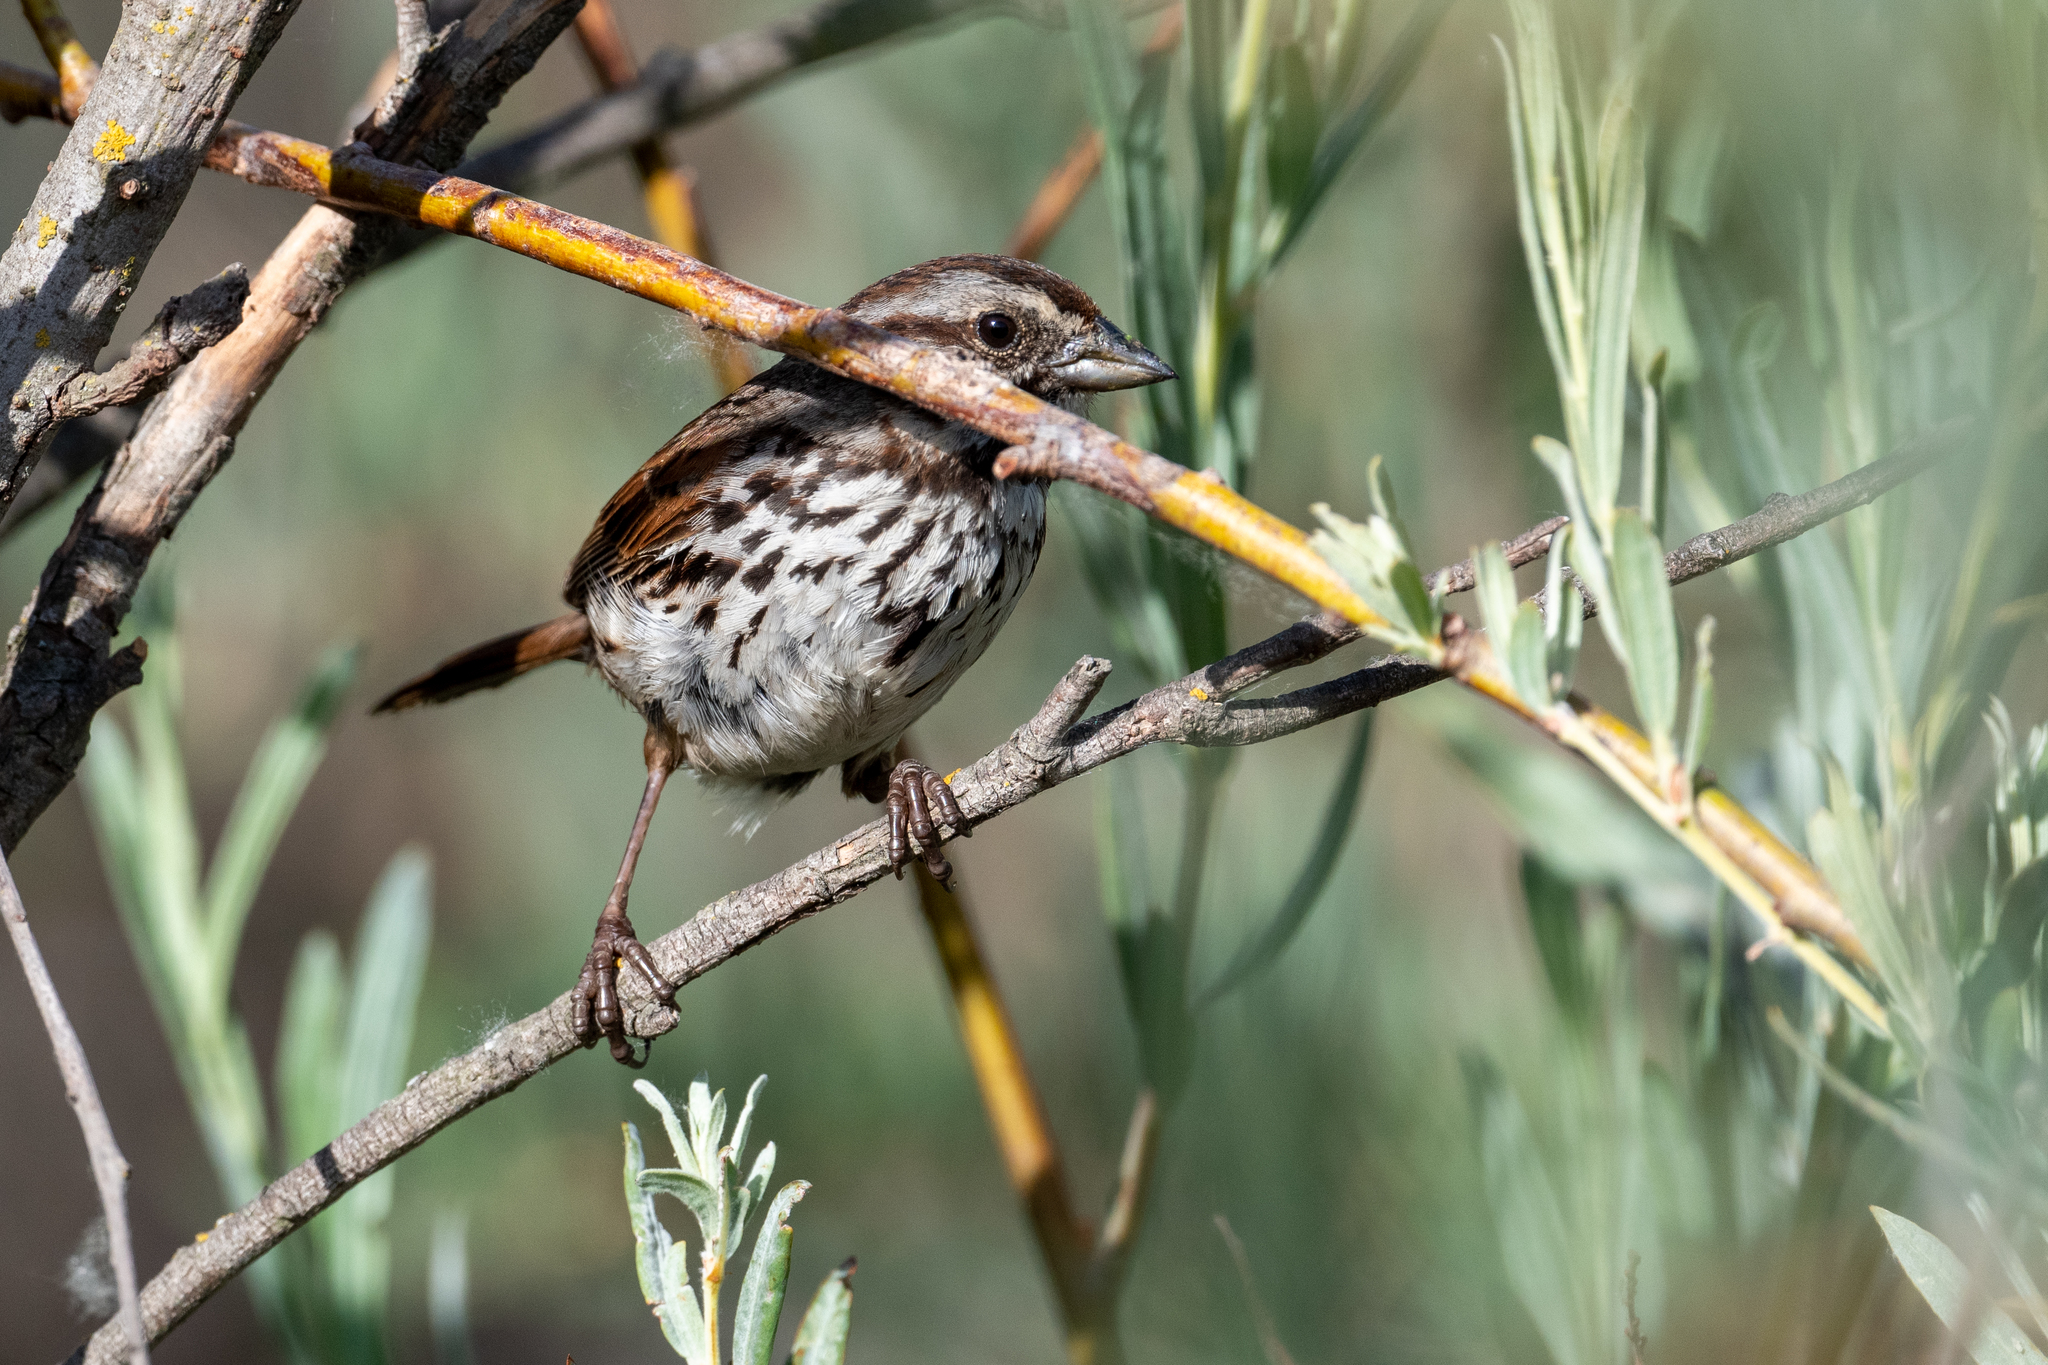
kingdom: Animalia
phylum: Chordata
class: Aves
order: Passeriformes
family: Passerellidae
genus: Melospiza
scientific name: Melospiza melodia
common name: Song sparrow
